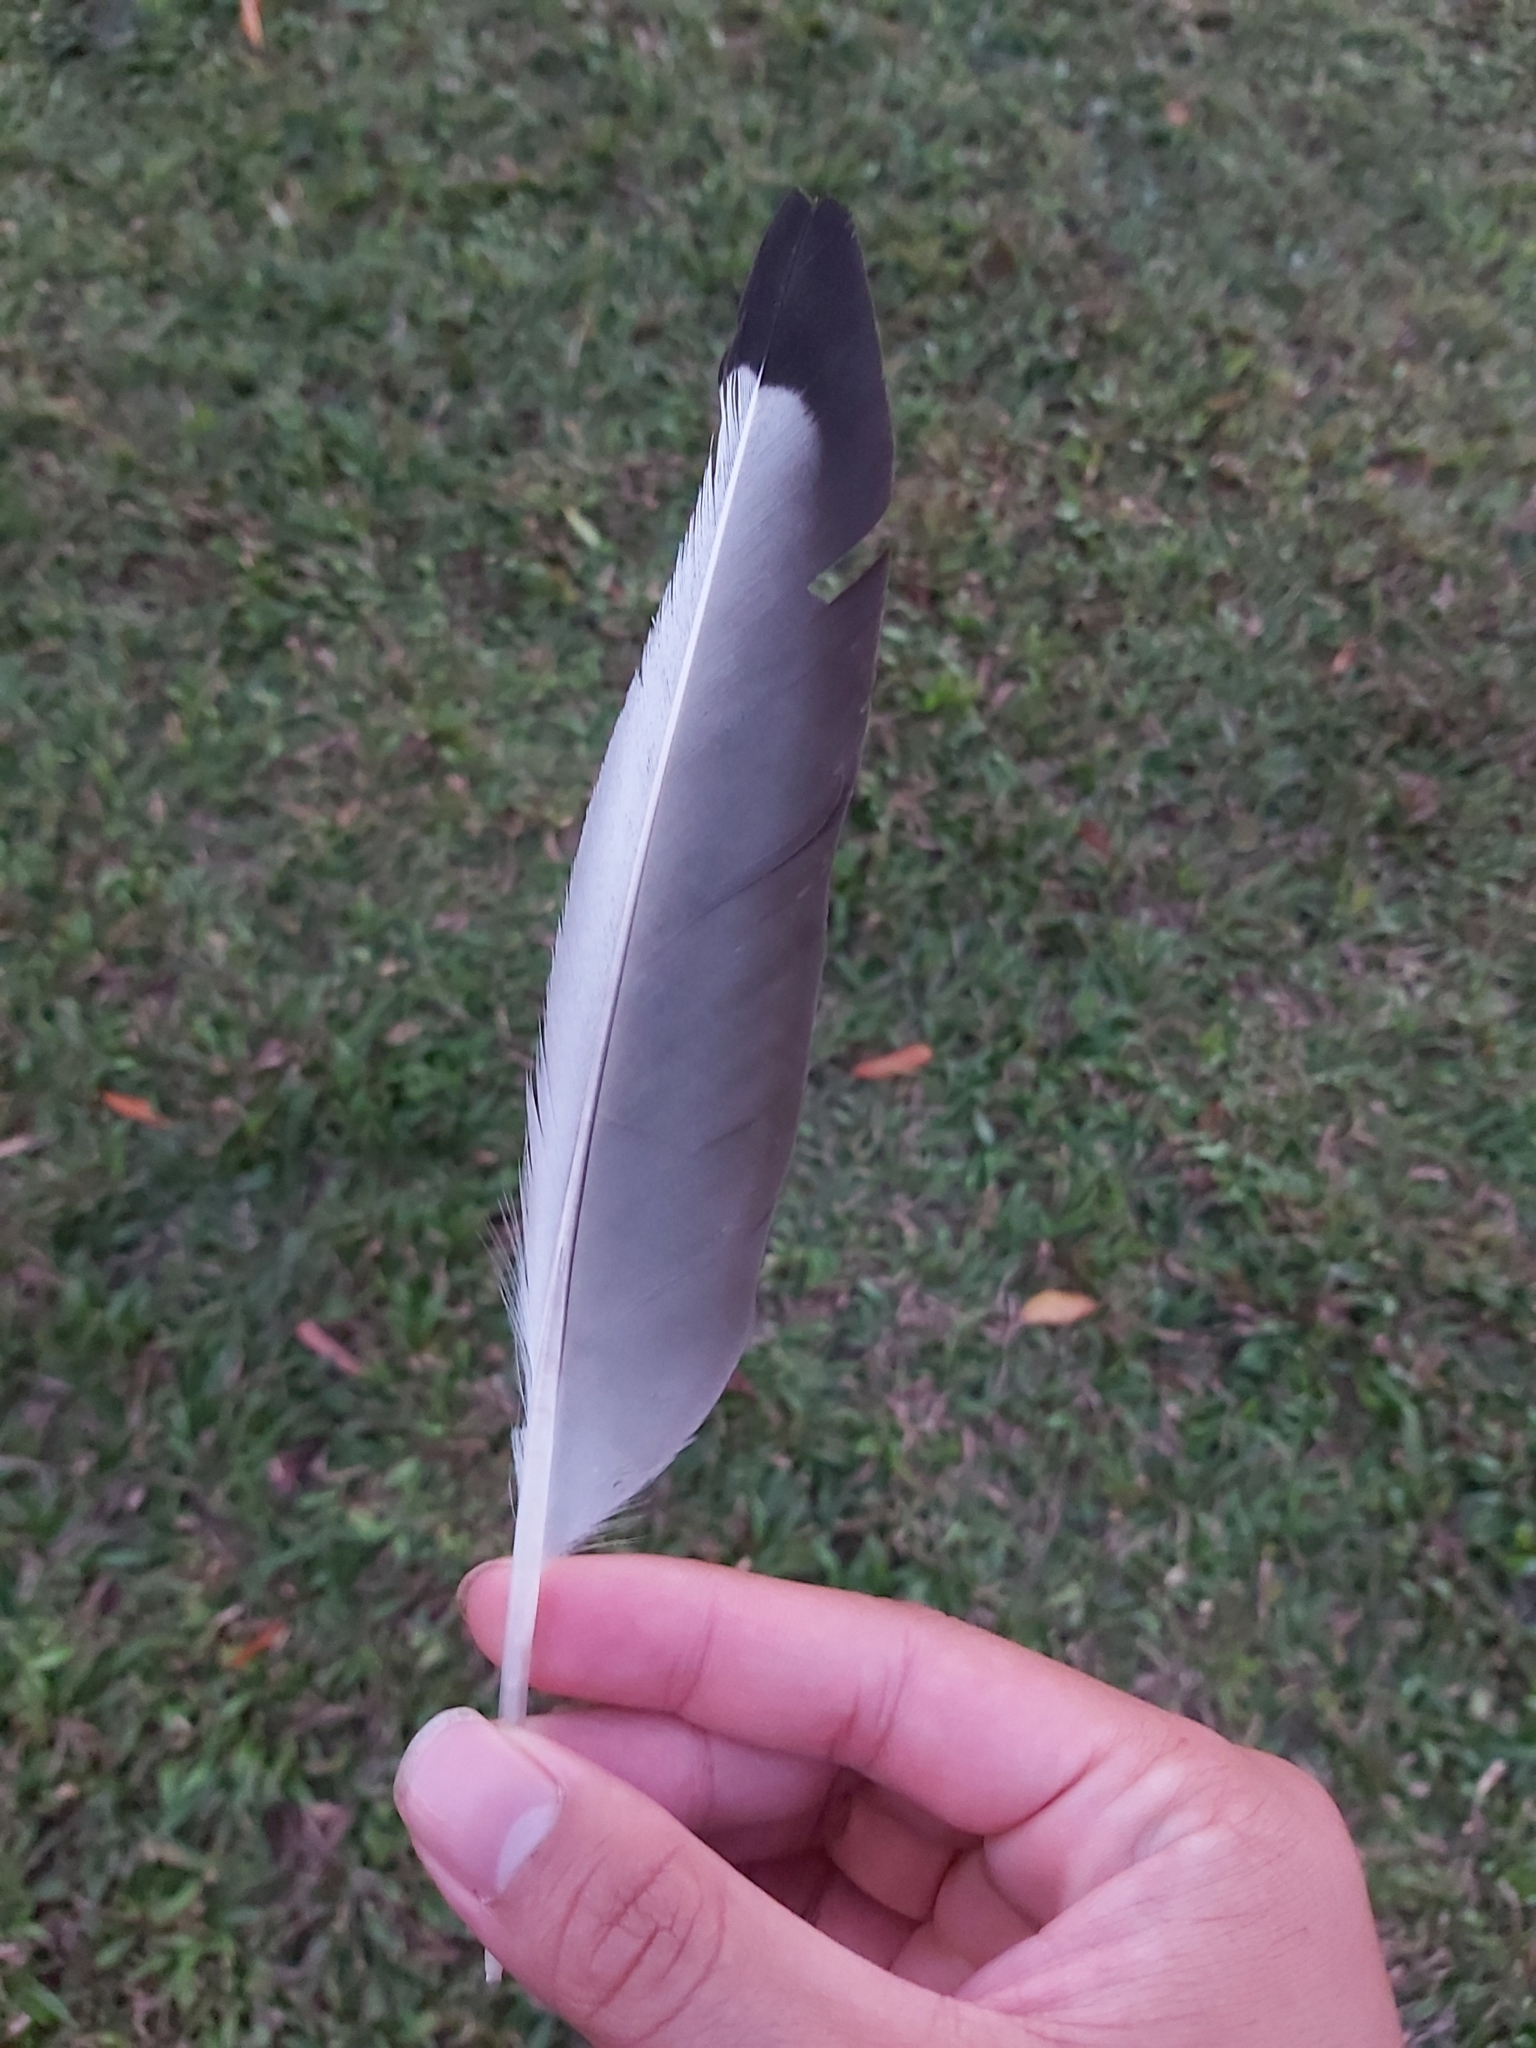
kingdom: Animalia
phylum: Chordata
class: Aves
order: Charadriiformes
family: Laridae
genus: Chroicocephalus
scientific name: Chroicocephalus novaehollandiae
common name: Silver gull
